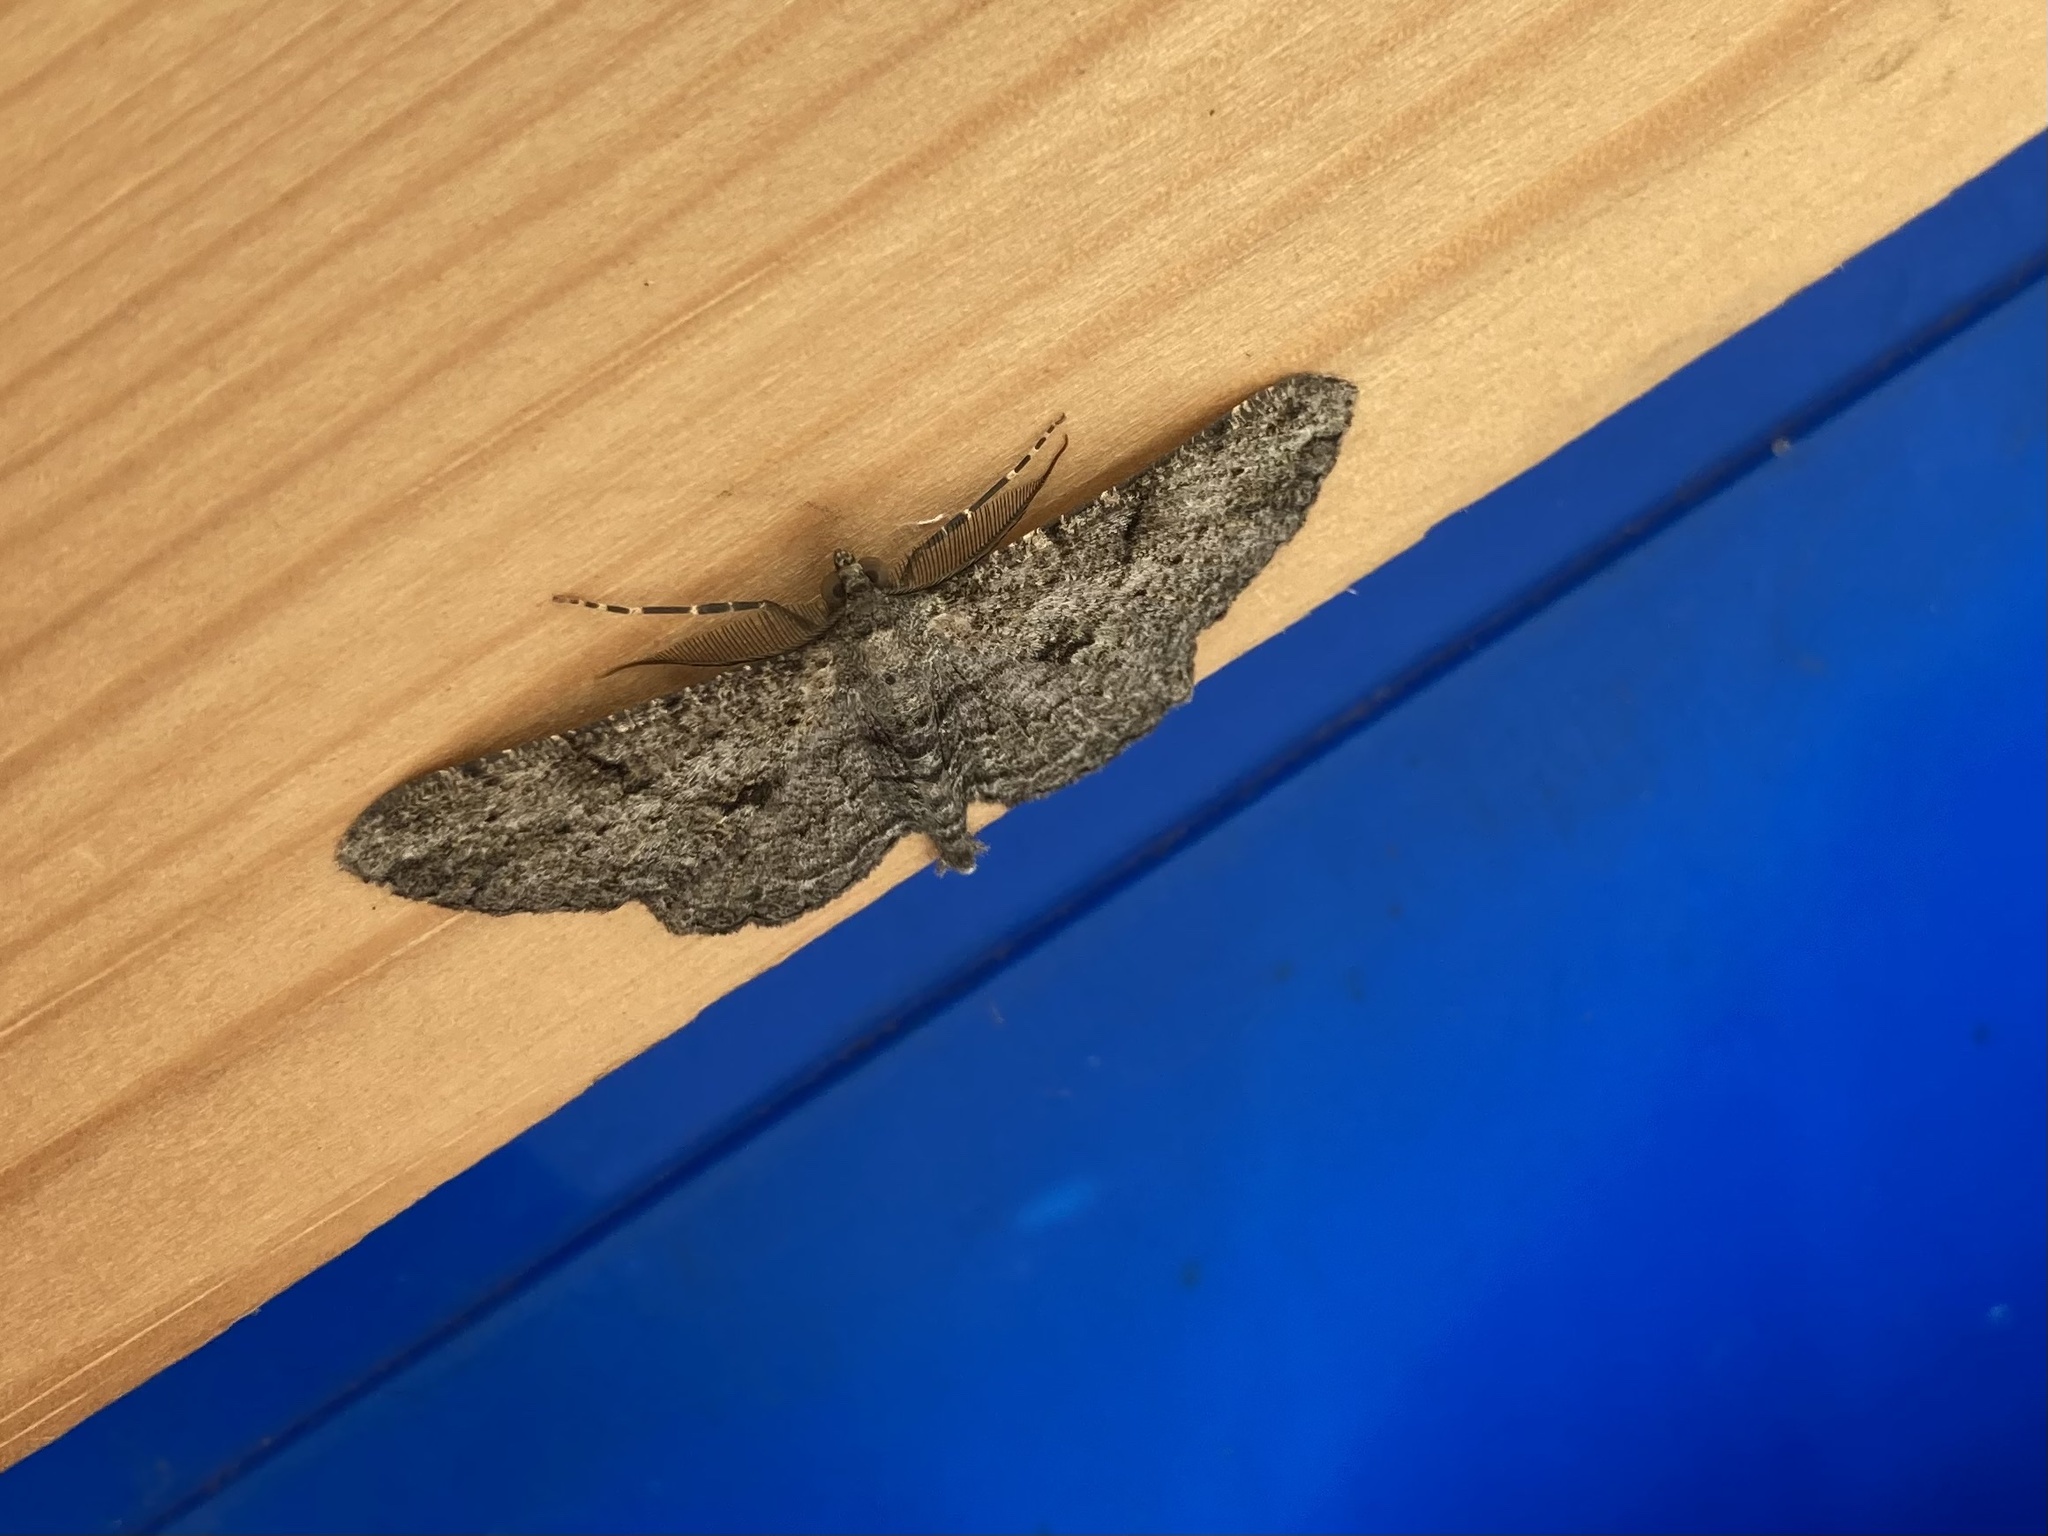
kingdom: Animalia
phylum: Arthropoda
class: Insecta
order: Lepidoptera
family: Geometridae
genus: Peribatodes
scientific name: Peribatodes rhomboidaria
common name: Willow beauty
